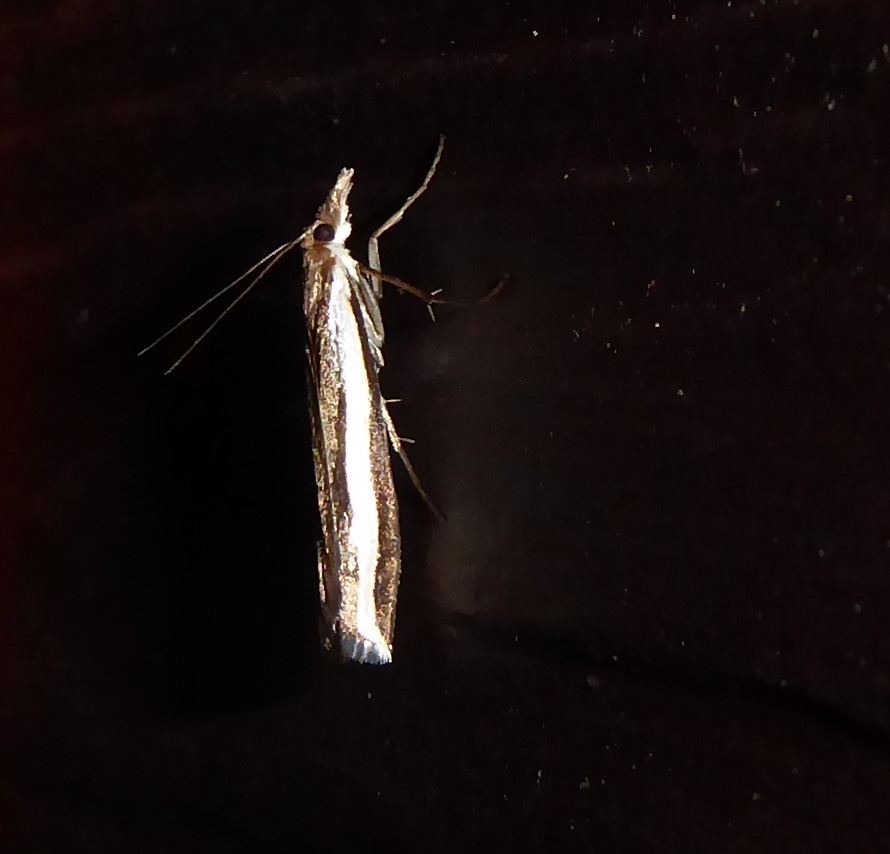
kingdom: Animalia
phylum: Arthropoda
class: Insecta
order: Lepidoptera
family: Crambidae
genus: Orocrambus
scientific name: Orocrambus flexuosellus
